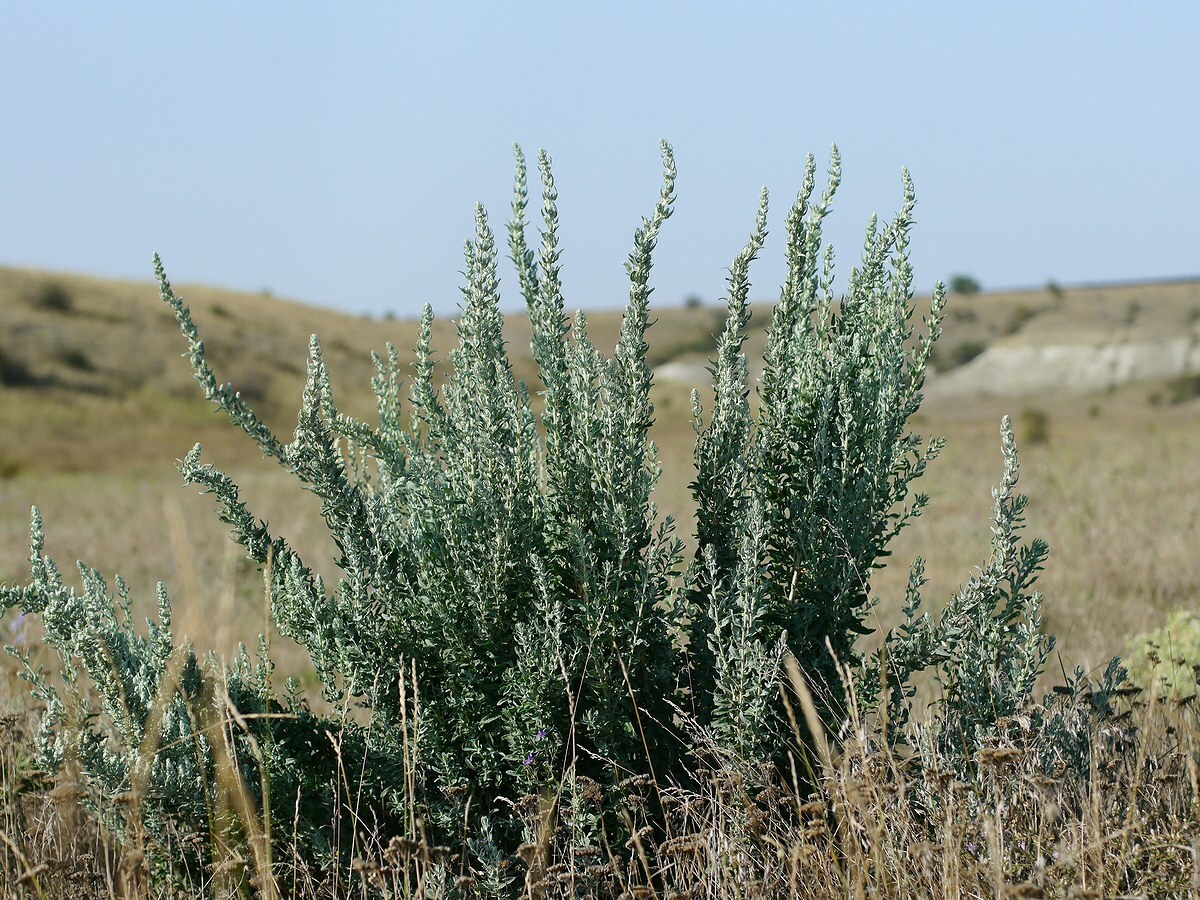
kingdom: Plantae
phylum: Tracheophyta
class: Magnoliopsida
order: Caryophyllales
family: Amaranthaceae
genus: Krascheninnikovia
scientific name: Krascheninnikovia ceratoides
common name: Pamirian winterfat
